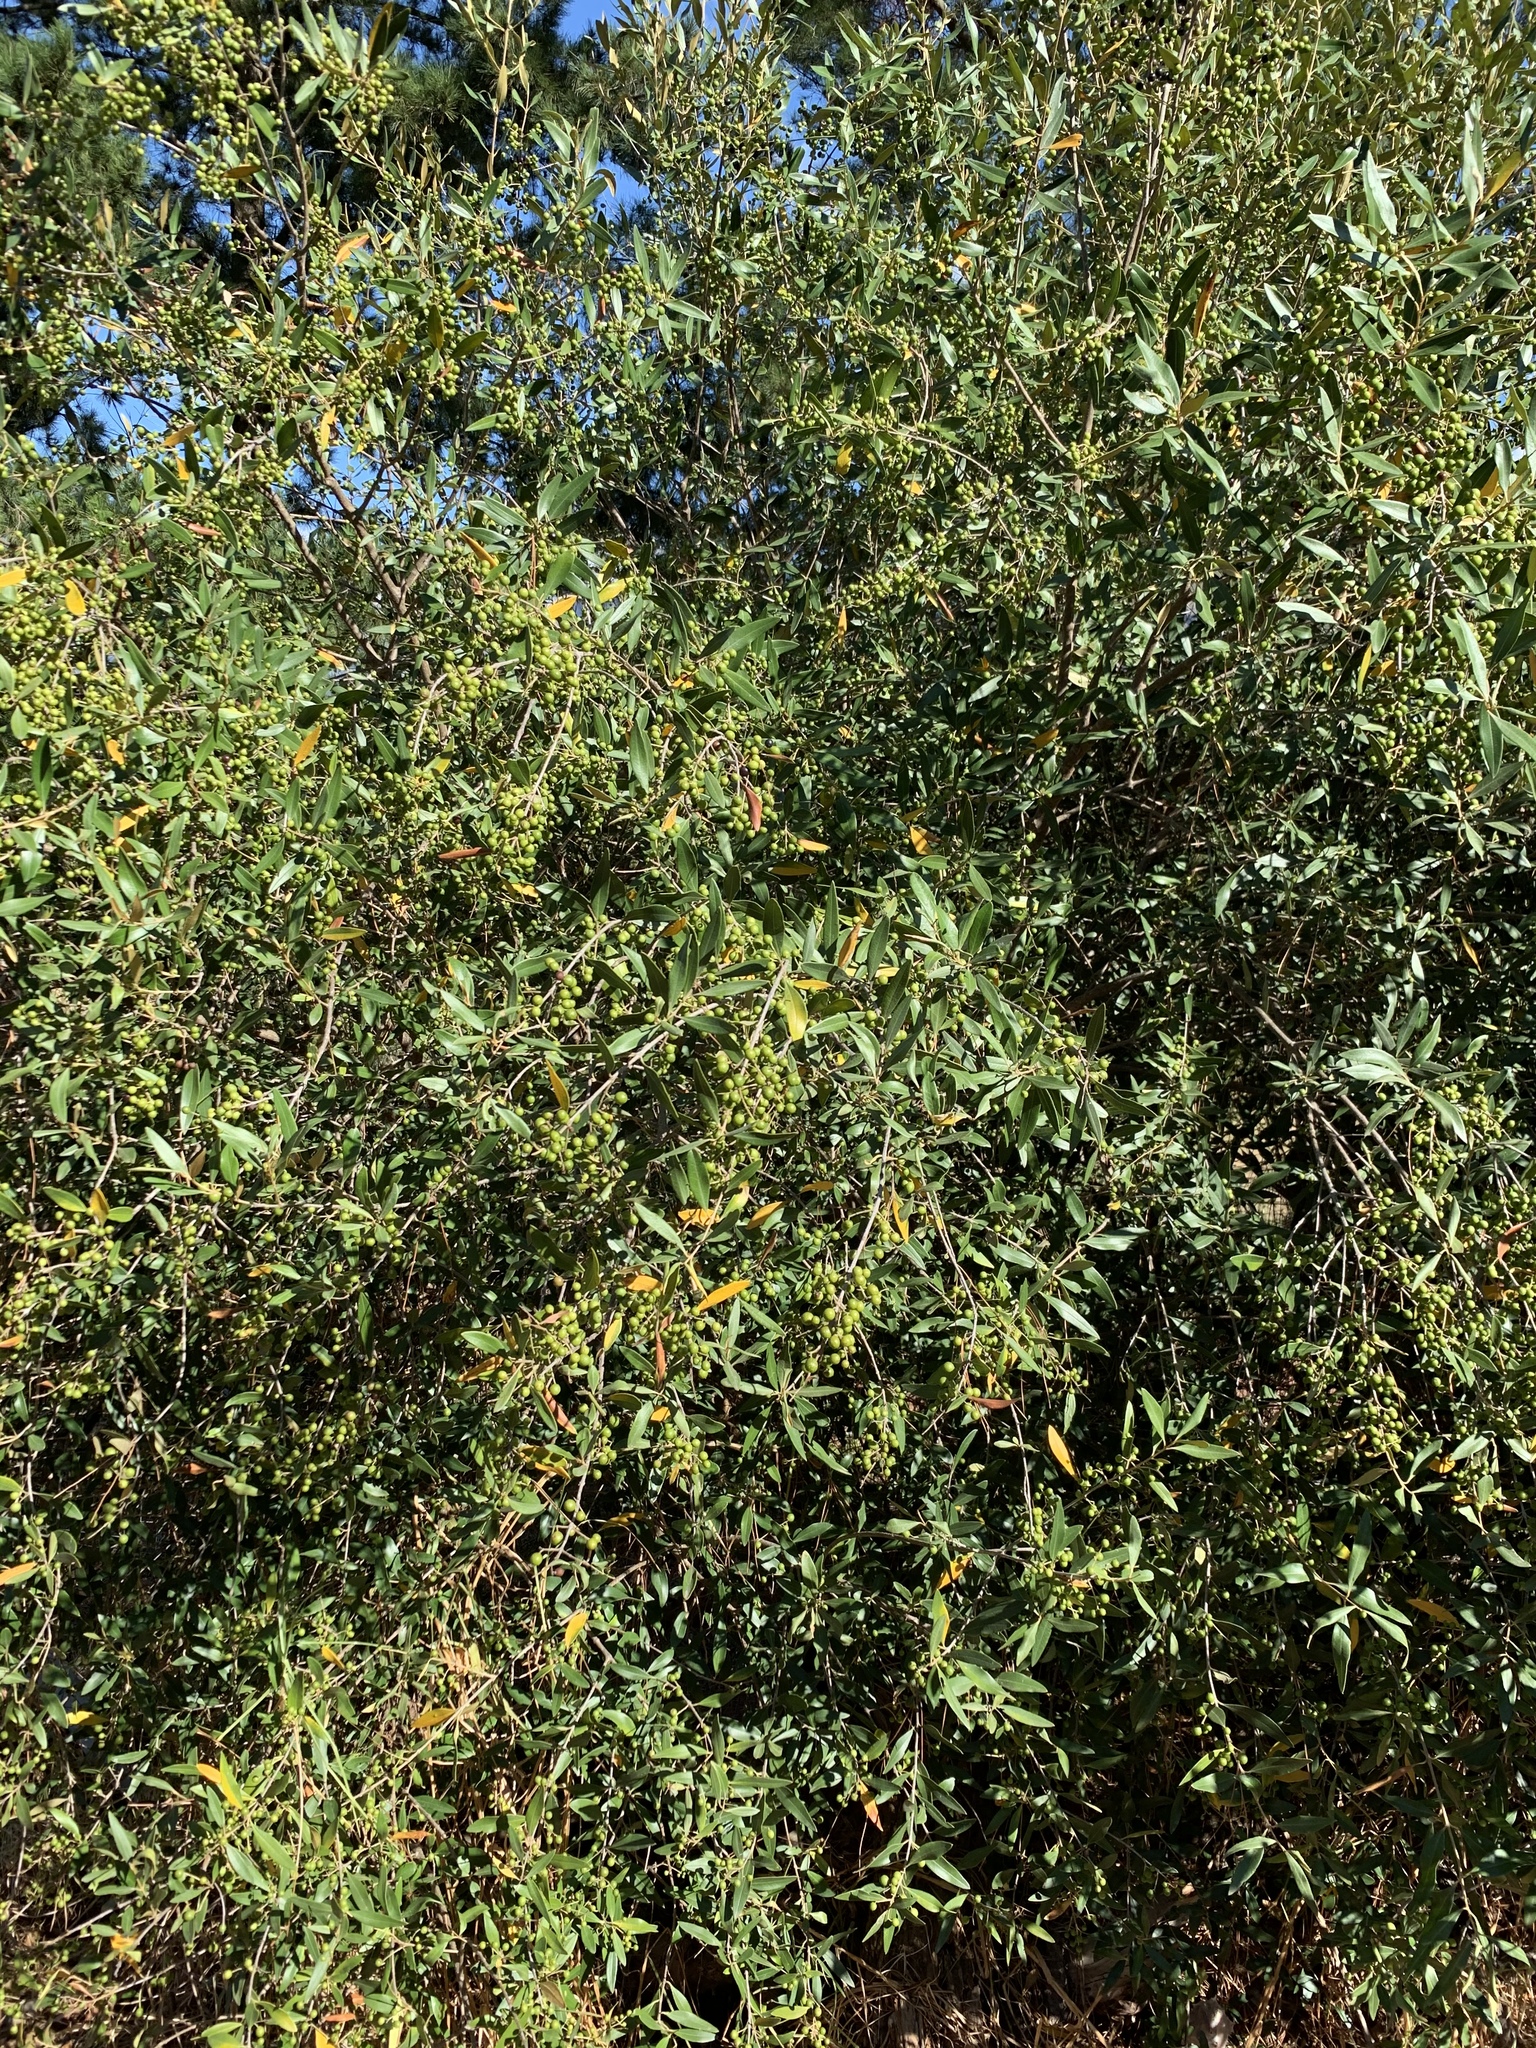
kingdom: Plantae
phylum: Tracheophyta
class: Magnoliopsida
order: Lamiales
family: Oleaceae
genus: Olea
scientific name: Olea europaea
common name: Olive
